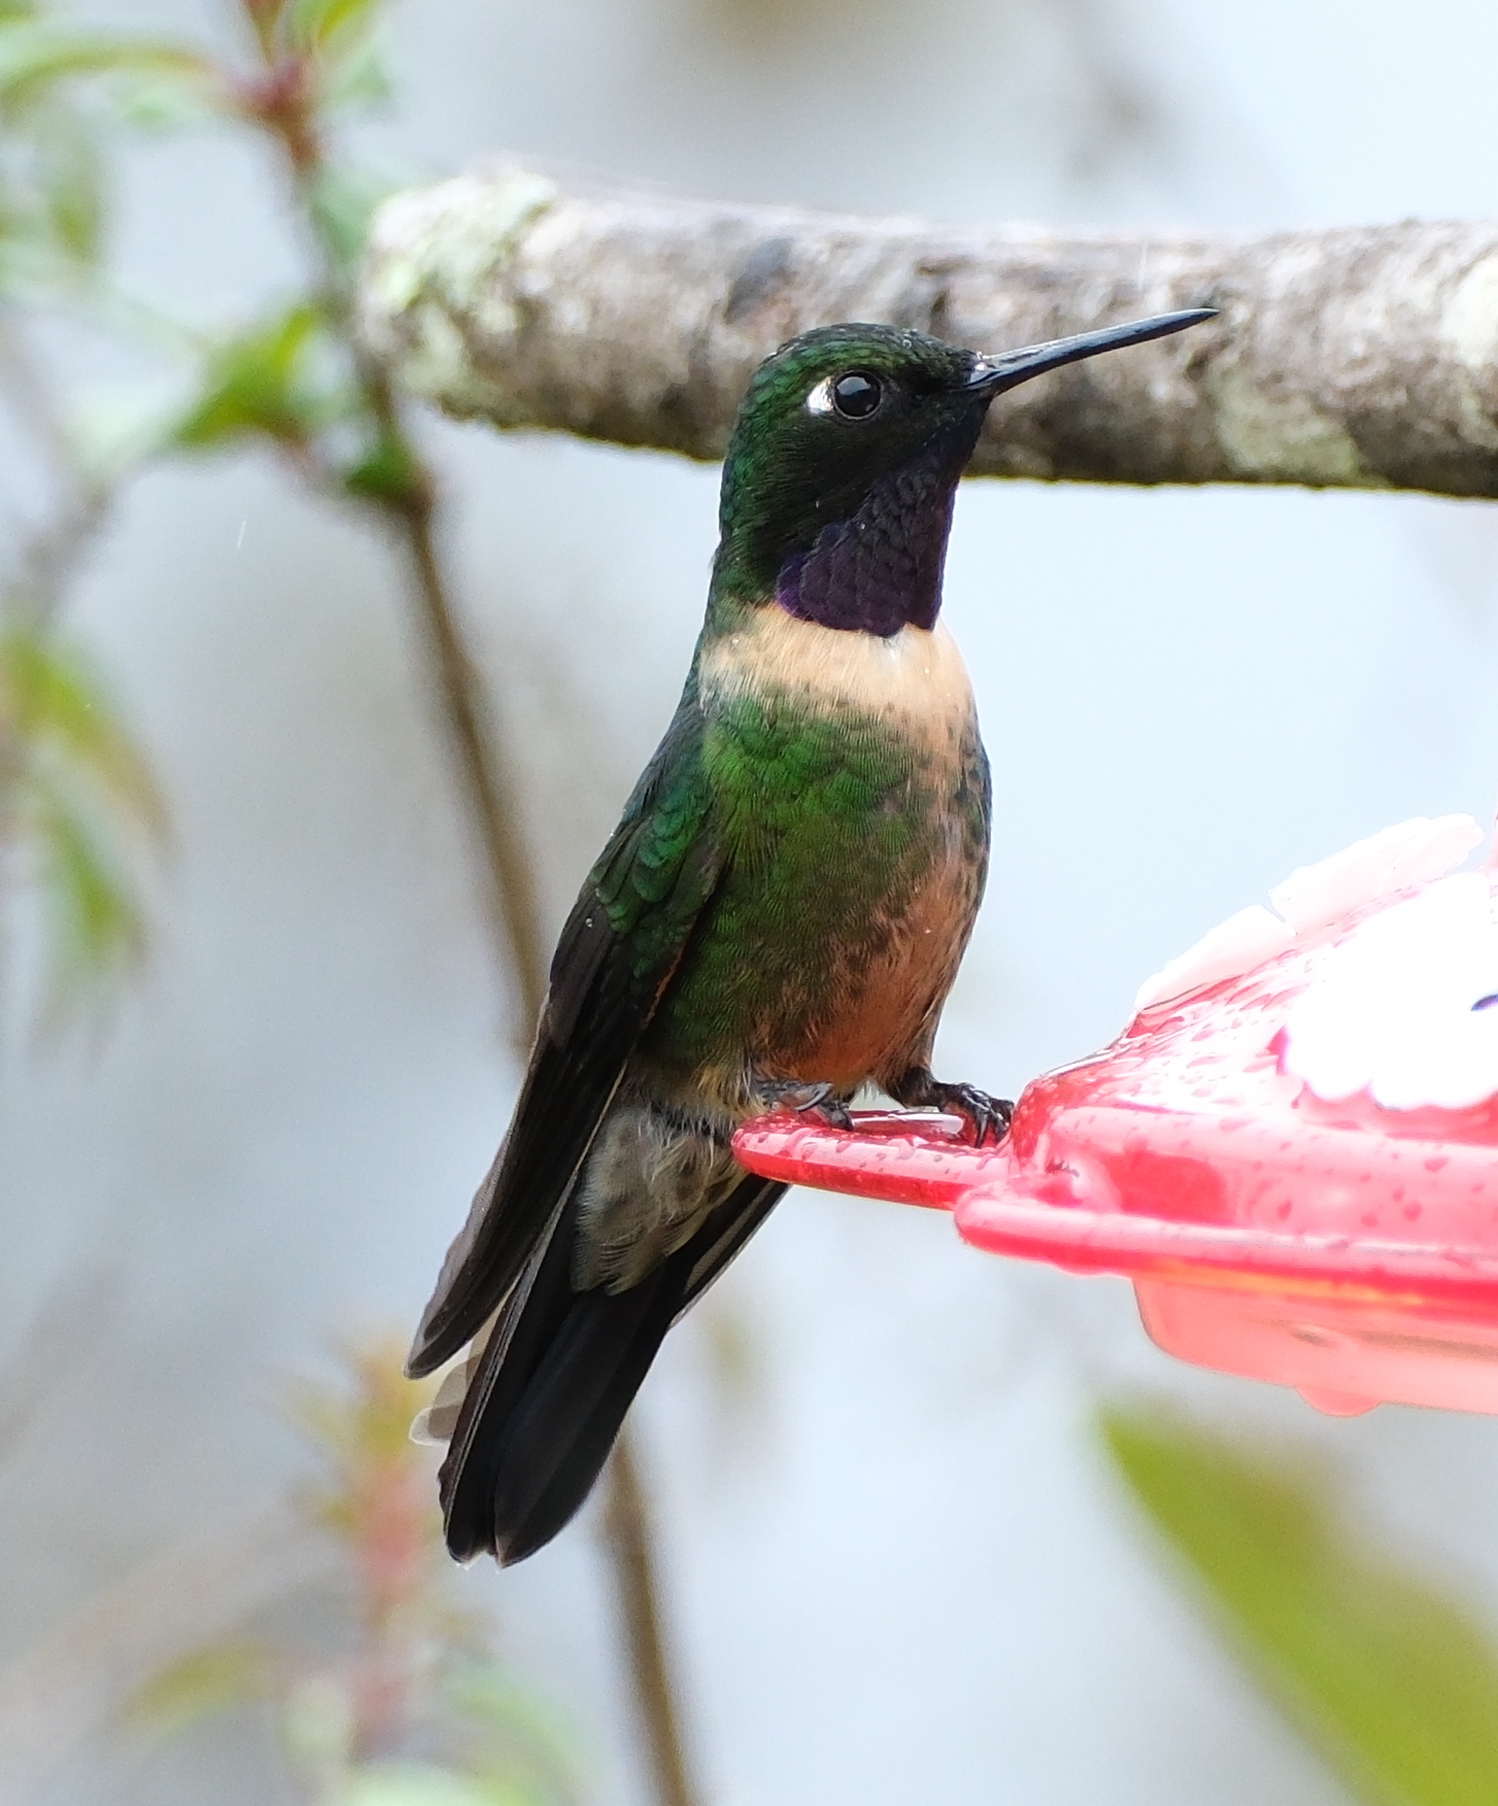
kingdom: Animalia
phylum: Chordata
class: Aves
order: Apodiformes
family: Trochilidae
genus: Heliangelus
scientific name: Heliangelus amethysticollis
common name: Amethyst-throated sunangel
